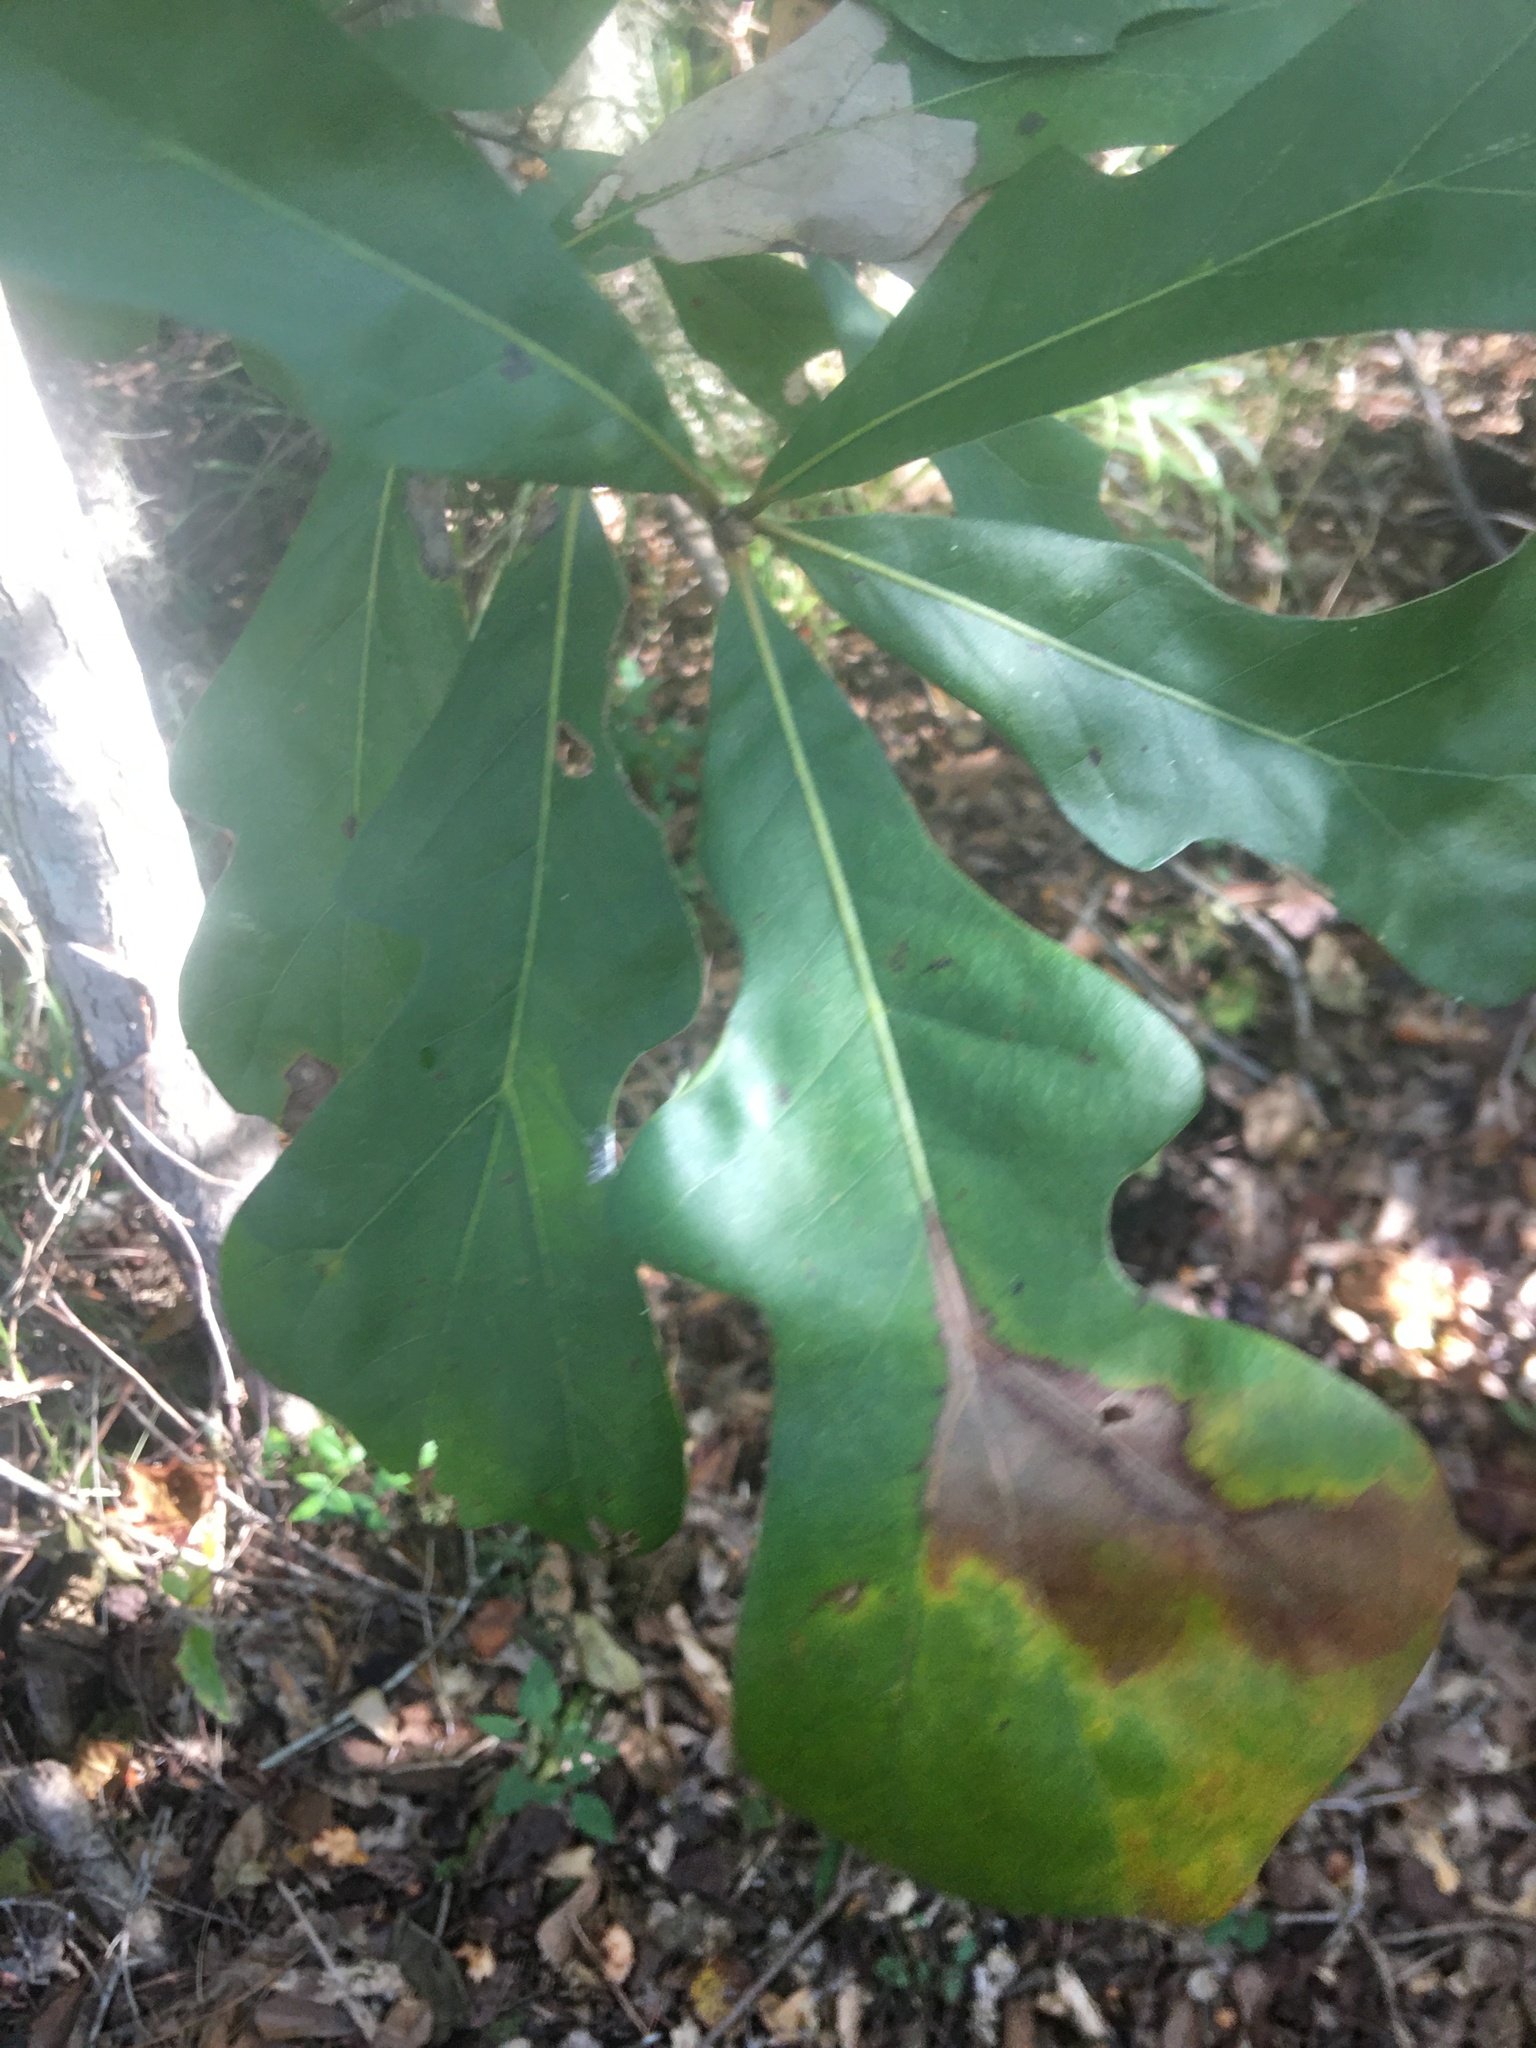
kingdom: Plantae
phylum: Tracheophyta
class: Magnoliopsida
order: Fagales
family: Fagaceae
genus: Quercus
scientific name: Quercus nigra
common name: Water oak
